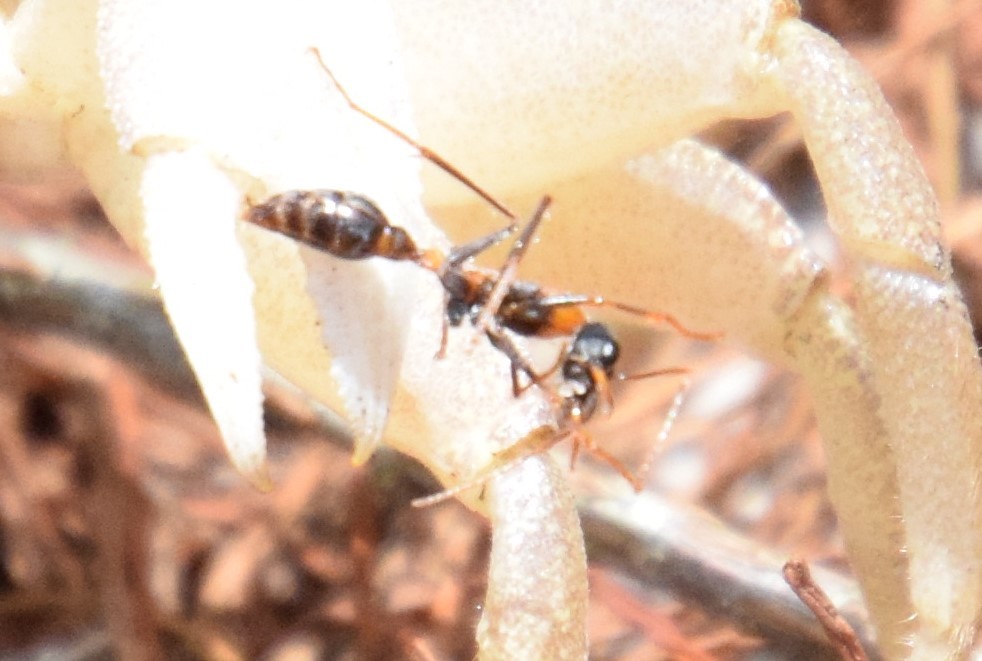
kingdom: Animalia
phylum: Arthropoda
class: Insecta
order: Hymenoptera
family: Formicidae
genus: Myrmecia
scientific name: Myrmecia nigrocincta
